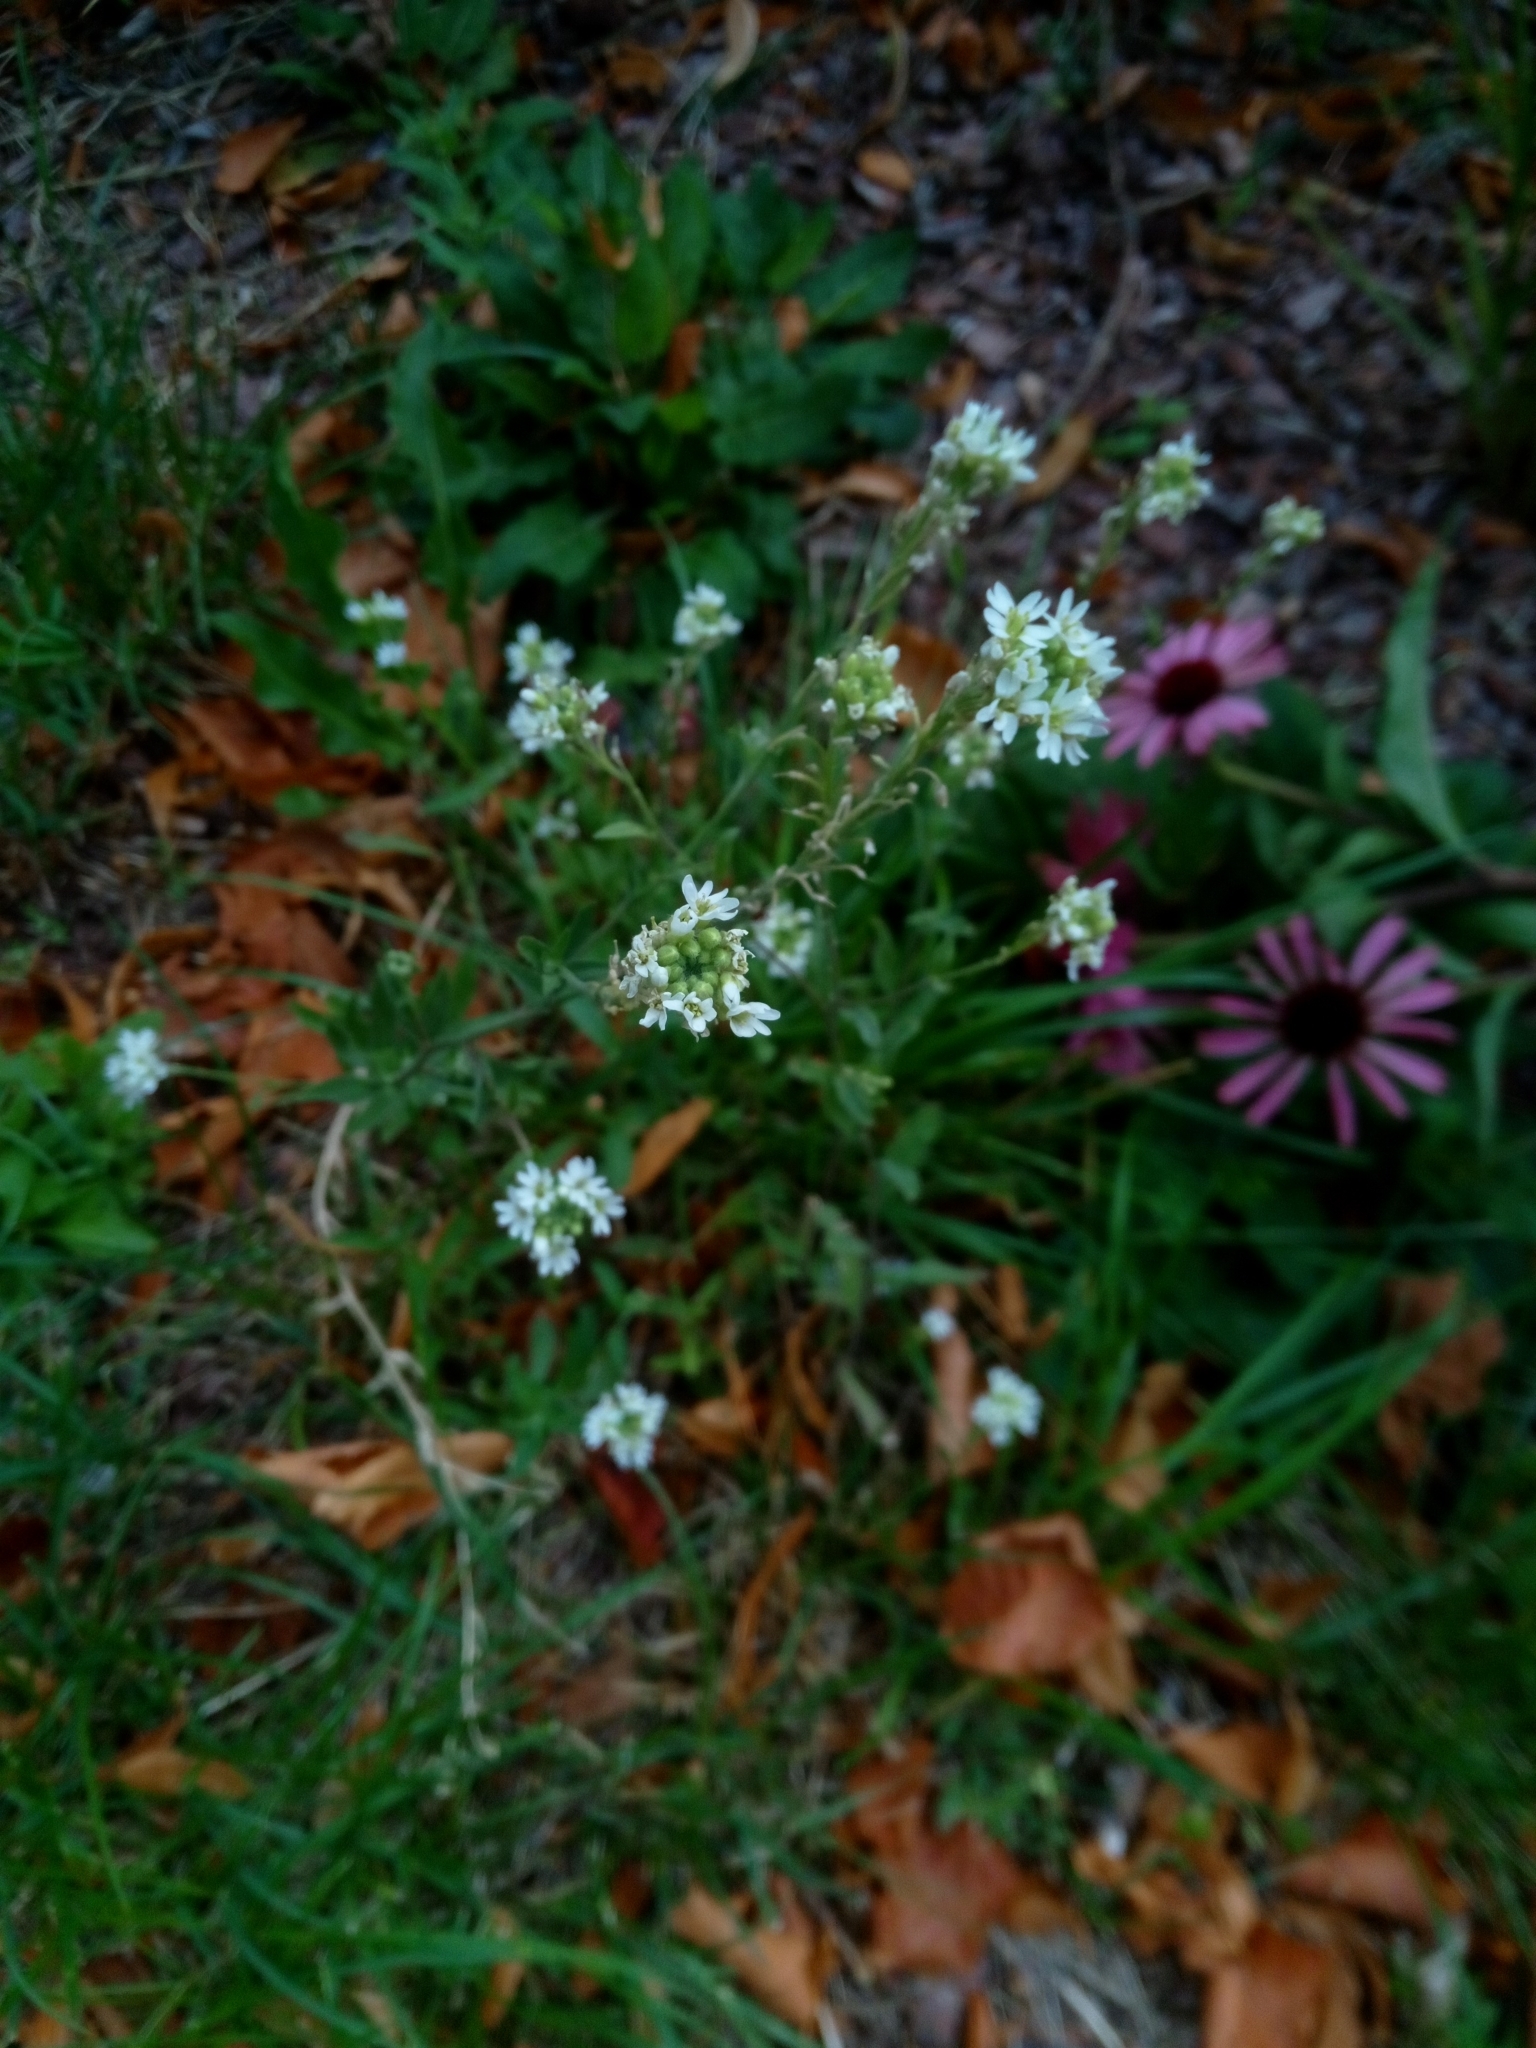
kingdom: Plantae
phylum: Tracheophyta
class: Magnoliopsida
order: Brassicales
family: Brassicaceae
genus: Berteroa
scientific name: Berteroa incana
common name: Hoary alison
